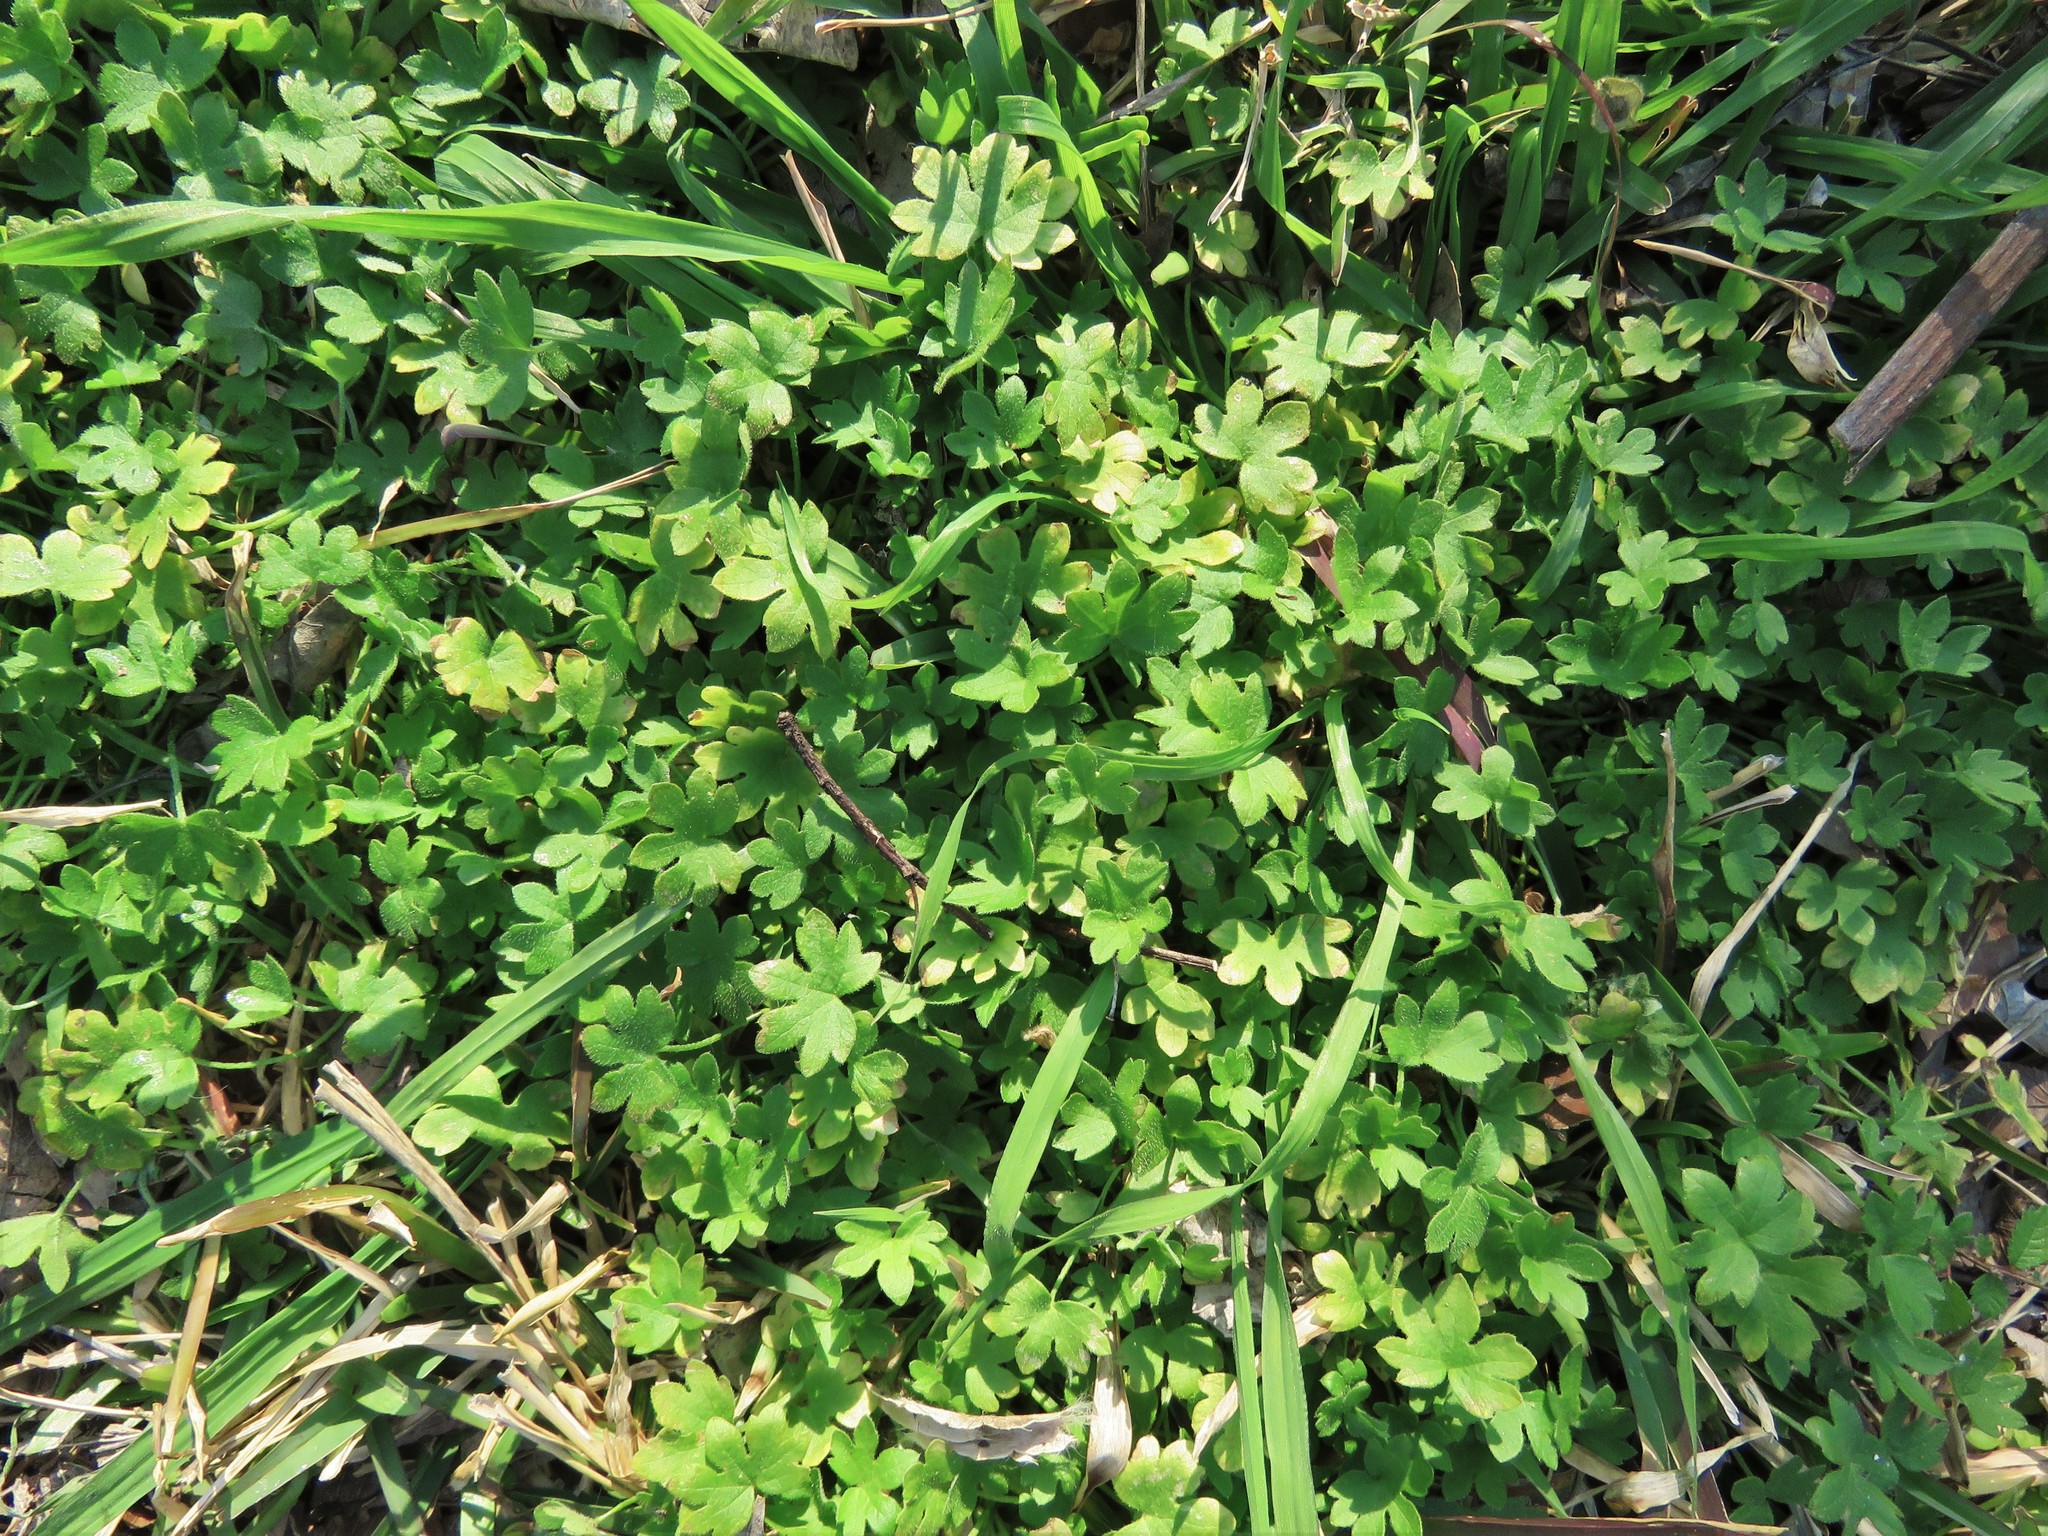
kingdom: Plantae
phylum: Tracheophyta
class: Magnoliopsida
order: Apiales
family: Apiaceae
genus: Bowlesia
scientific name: Bowlesia incana
